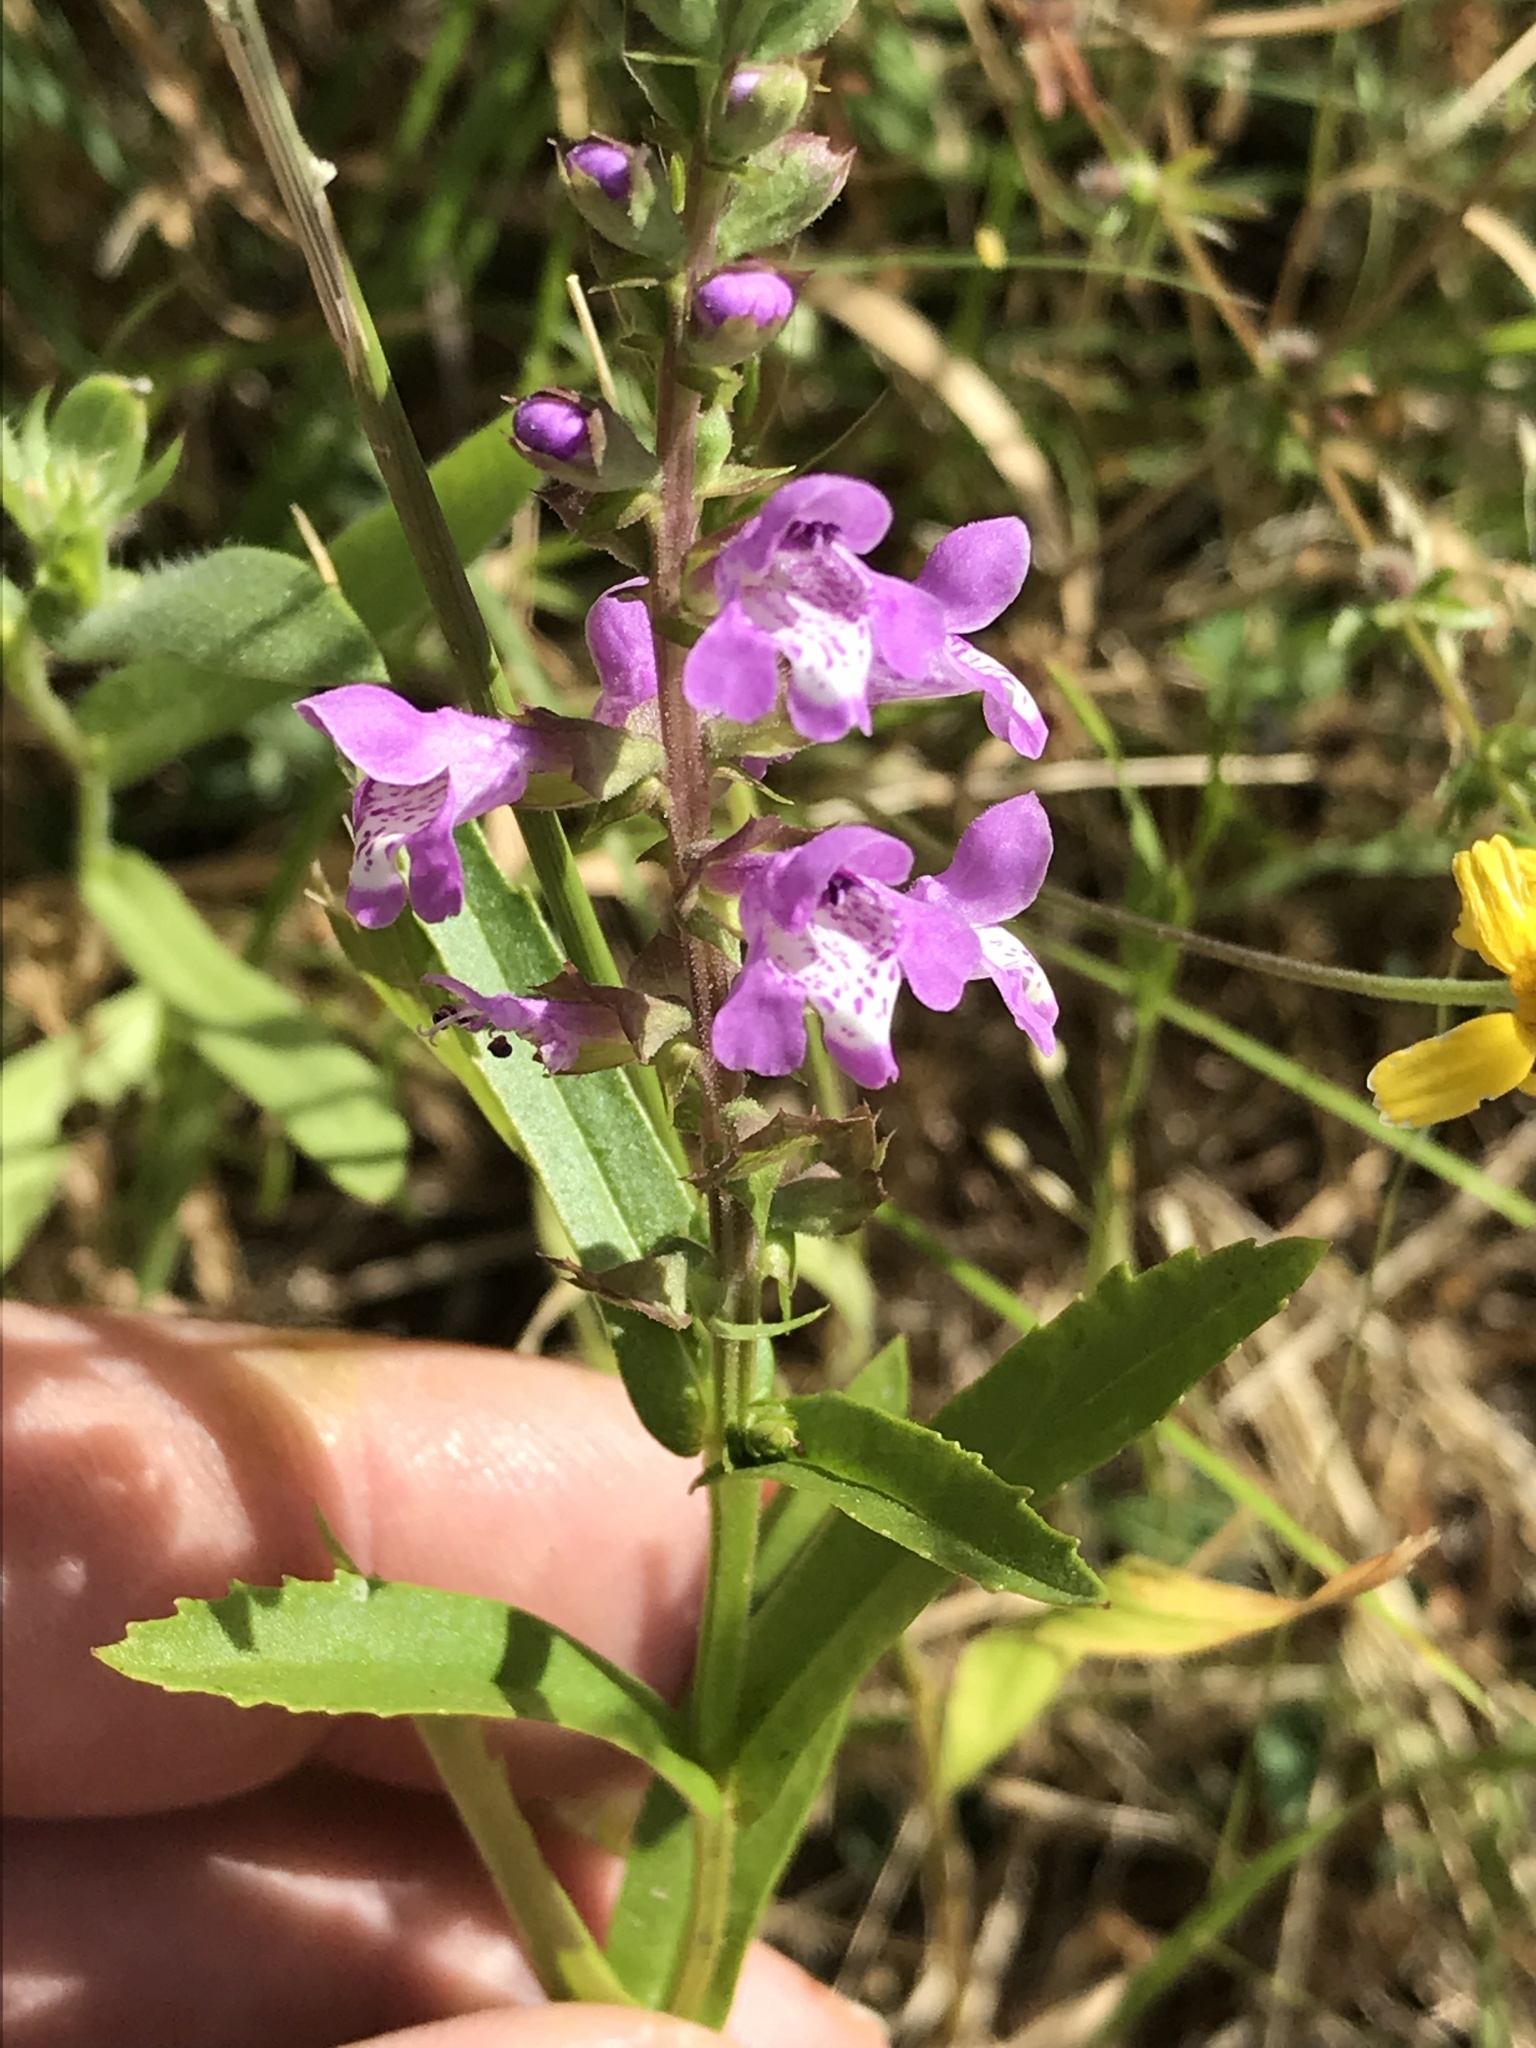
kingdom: Plantae
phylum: Tracheophyta
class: Magnoliopsida
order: Lamiales
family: Lamiaceae
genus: Warnockia
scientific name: Warnockia scutellarioides
